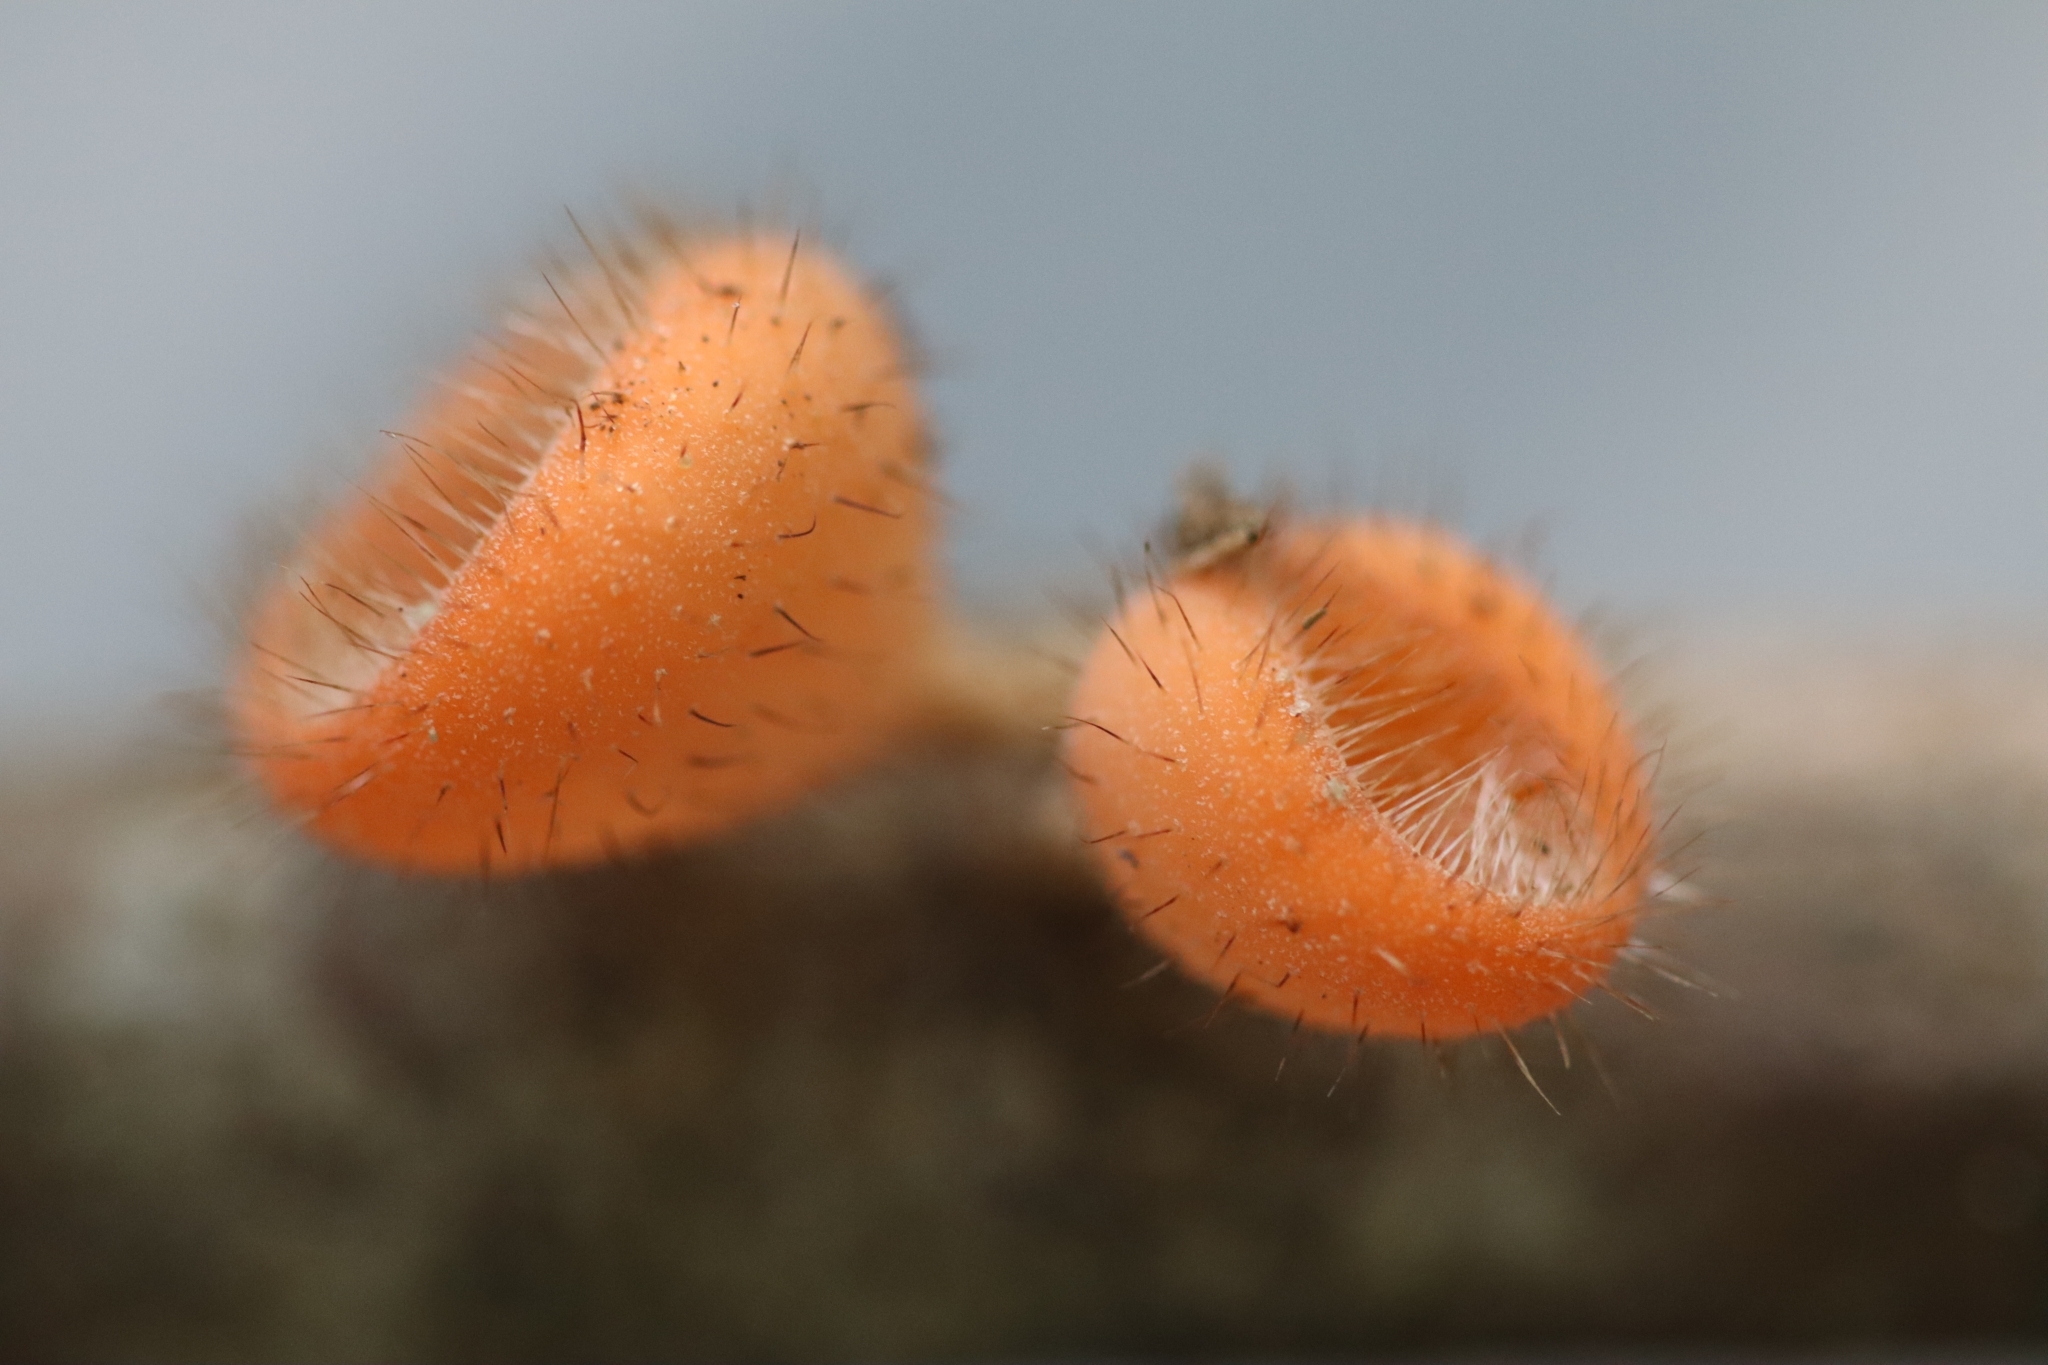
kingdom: Fungi
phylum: Ascomycota
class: Pezizomycetes
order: Pezizales
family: Sarcoscyphaceae
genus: Cookeina
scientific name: Cookeina tricholoma
